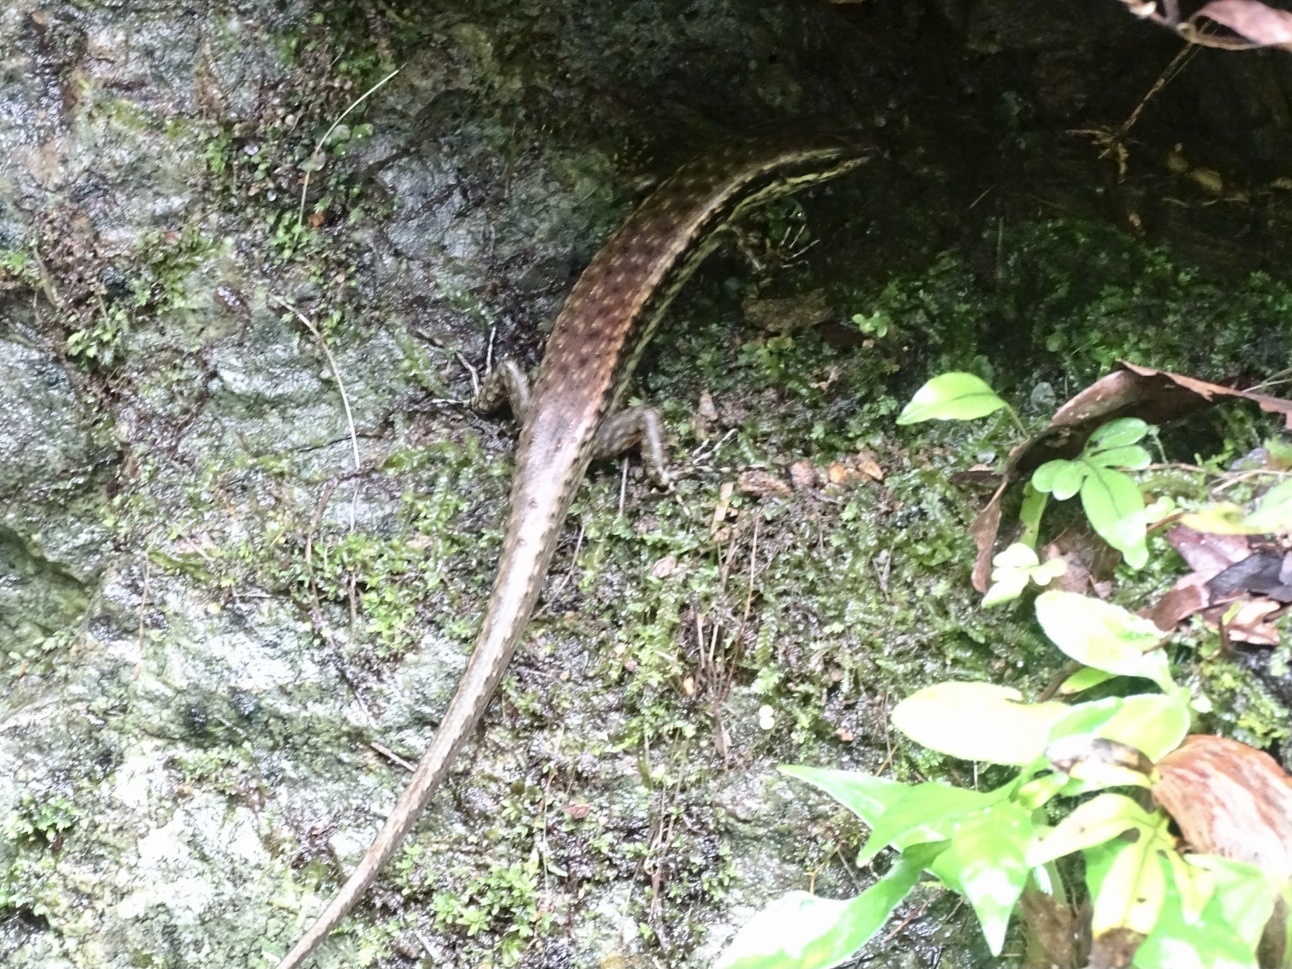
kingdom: Animalia
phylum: Chordata
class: Squamata
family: Scincidae
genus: Sphenomorphus
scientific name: Sphenomorphus incognitus
